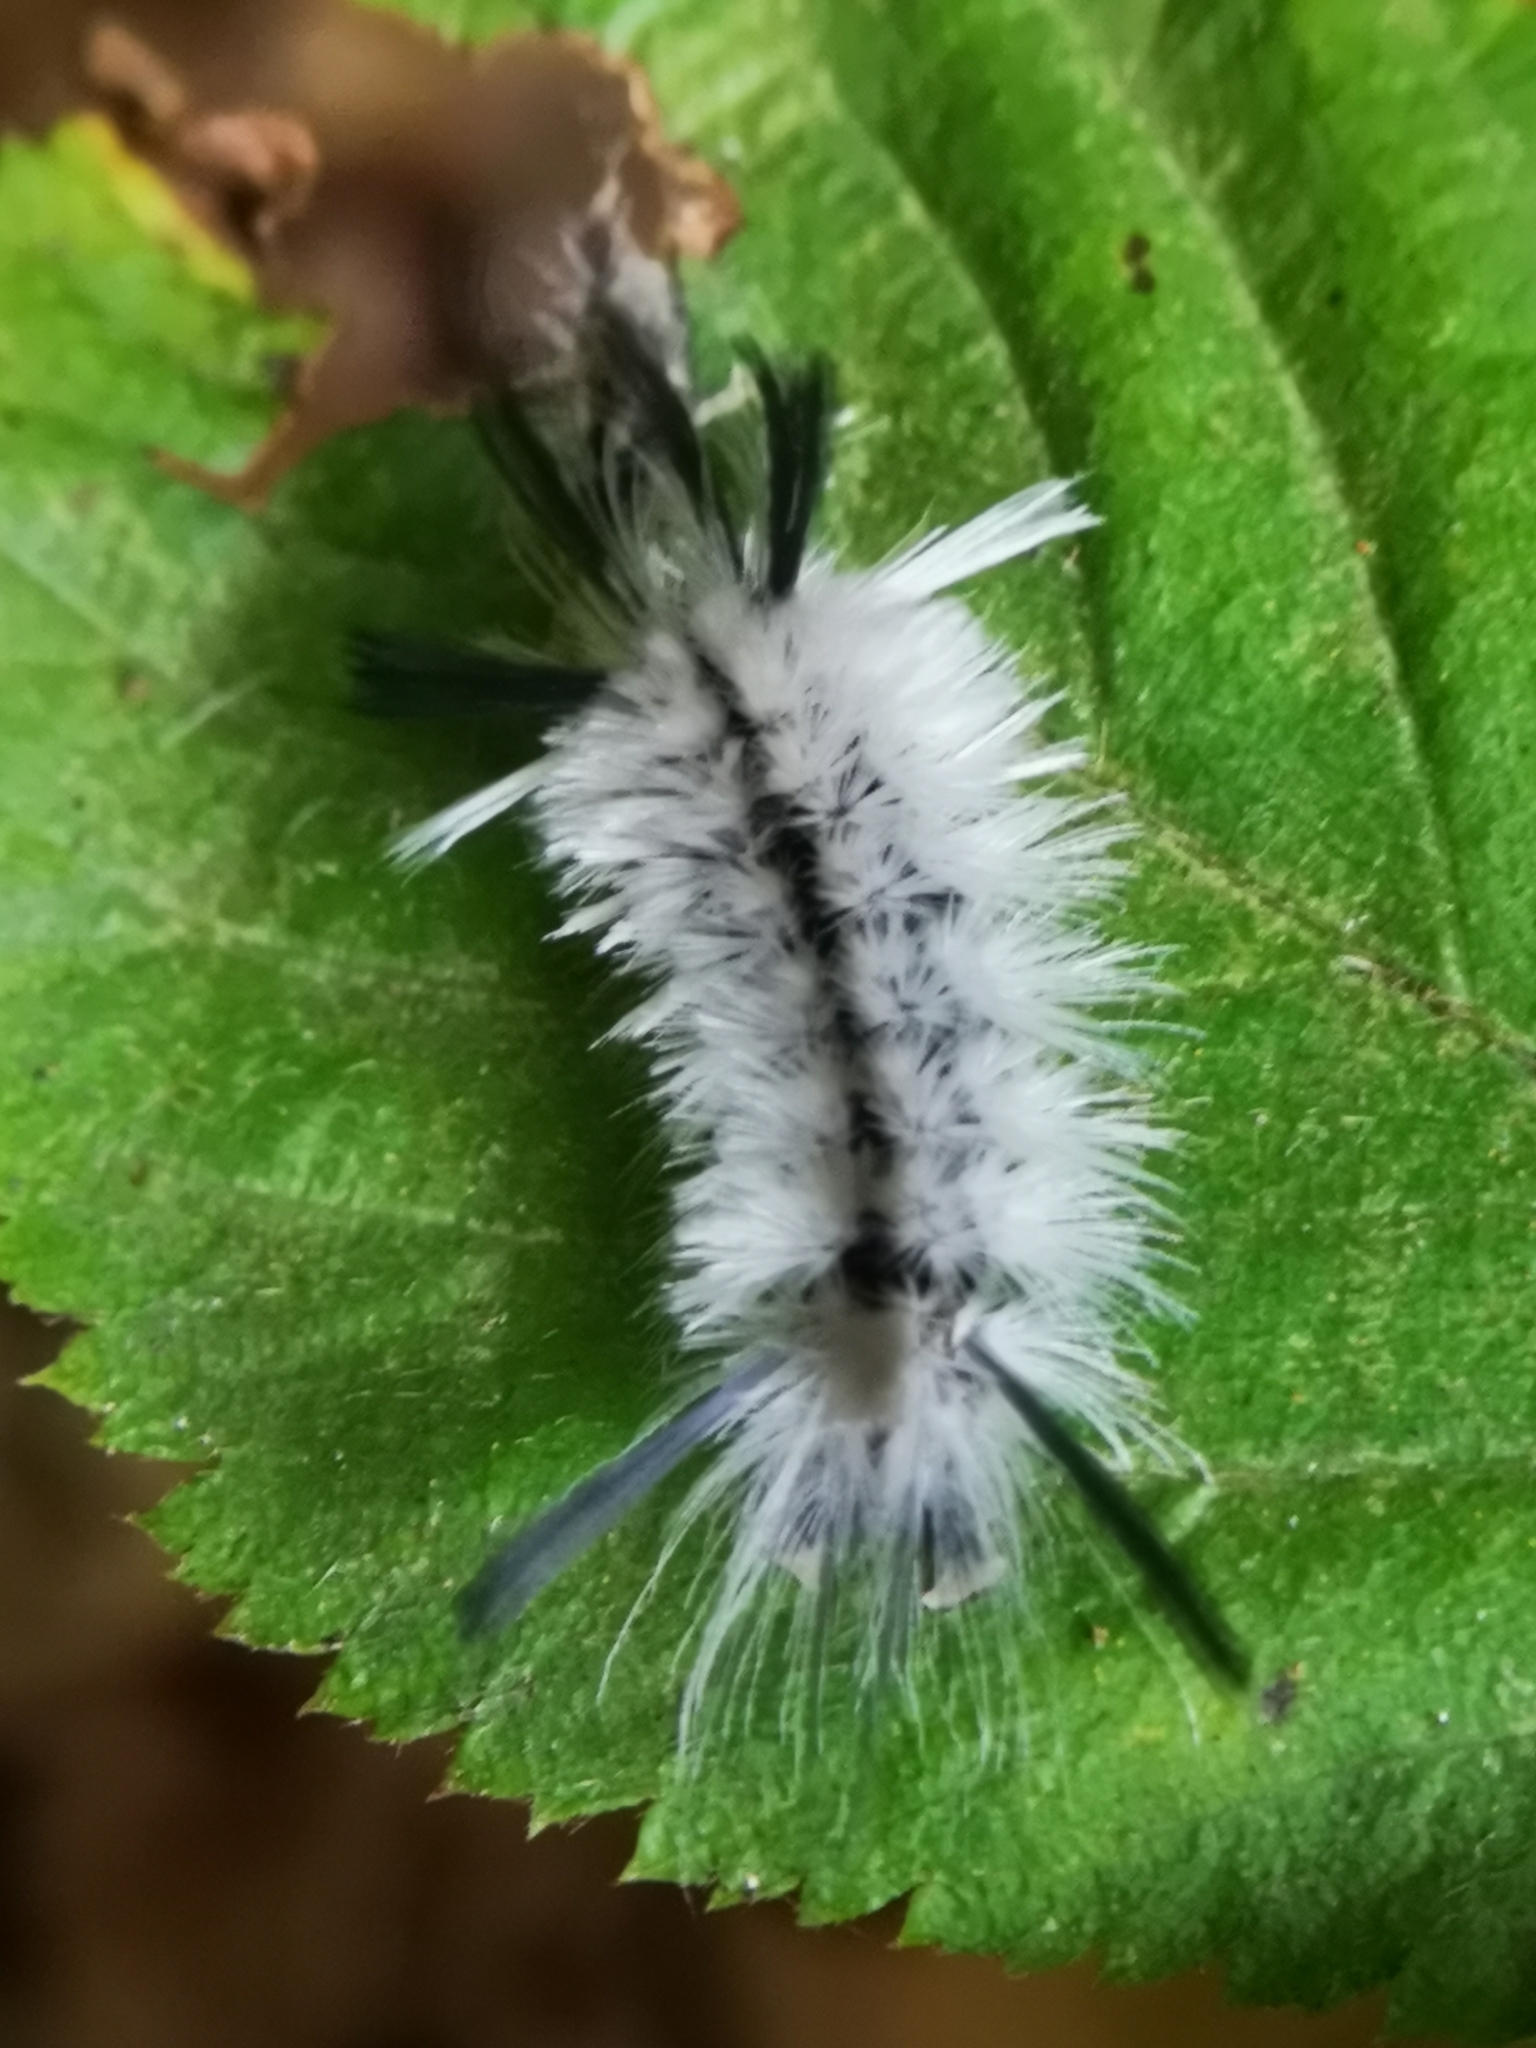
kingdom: Animalia
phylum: Arthropoda
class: Insecta
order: Lepidoptera
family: Erebidae
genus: Halysidota
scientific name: Halysidota tessellaris
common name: Banded tussock moth
